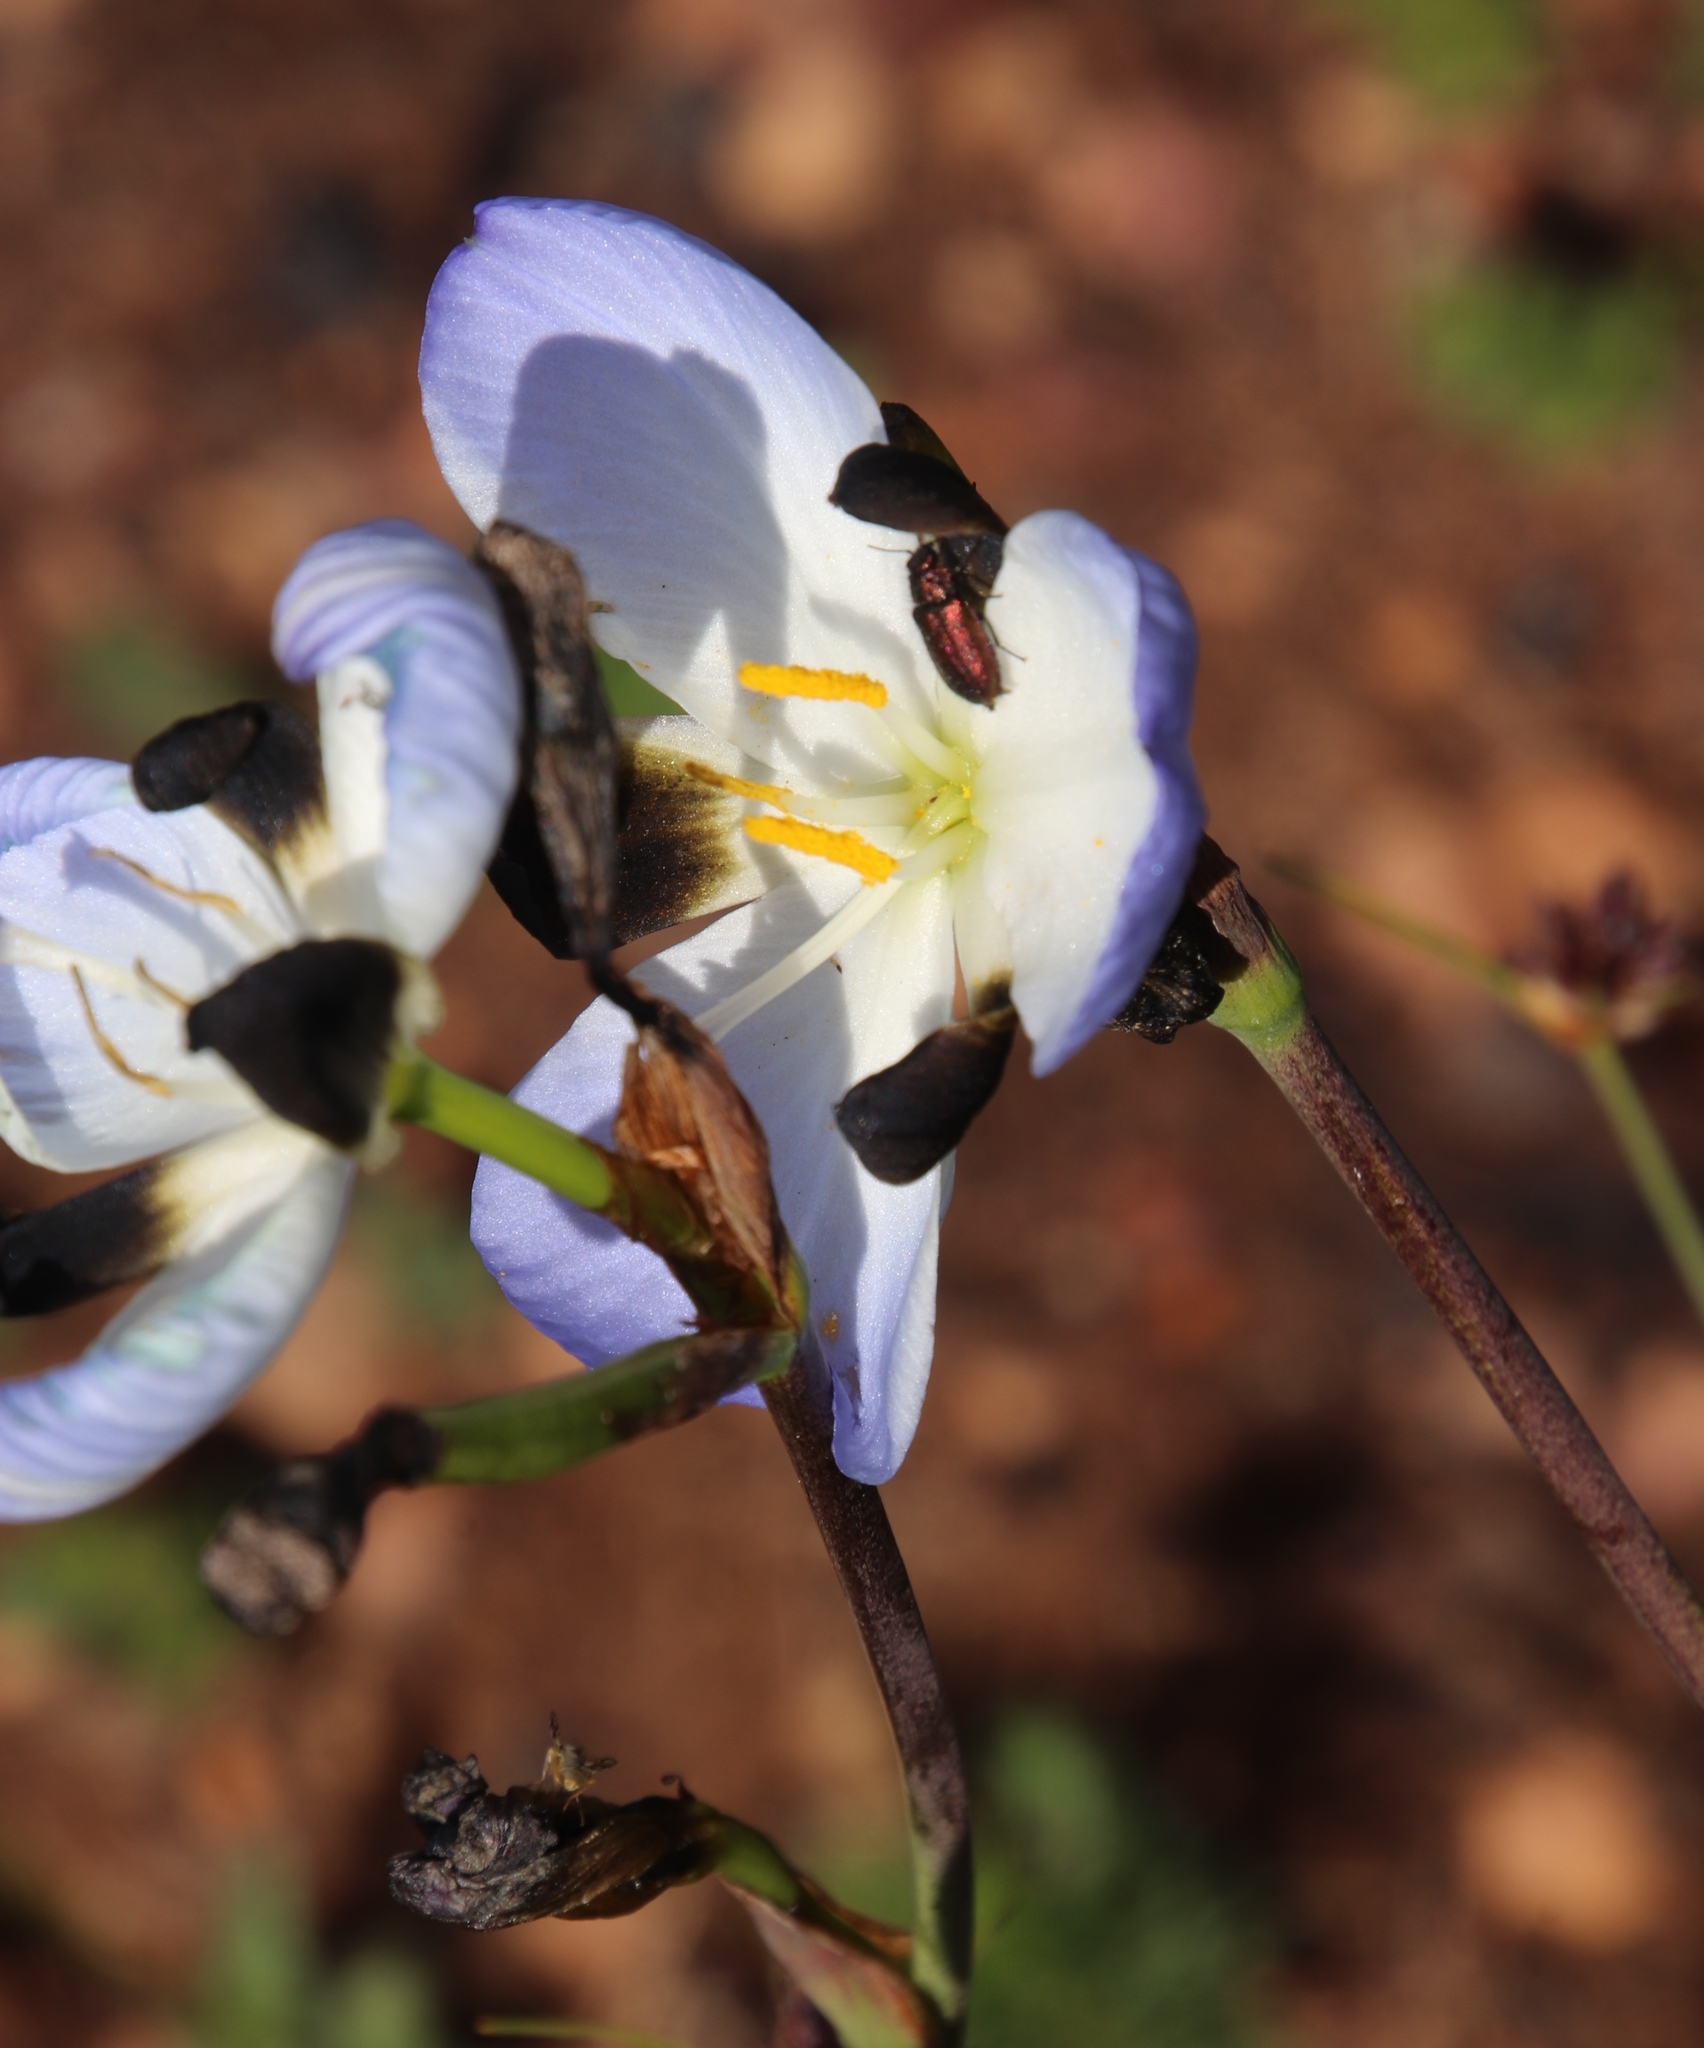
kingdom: Plantae
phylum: Tracheophyta
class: Liliopsida
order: Asparagales
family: Iridaceae
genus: Aristea
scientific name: Aristea lugens
